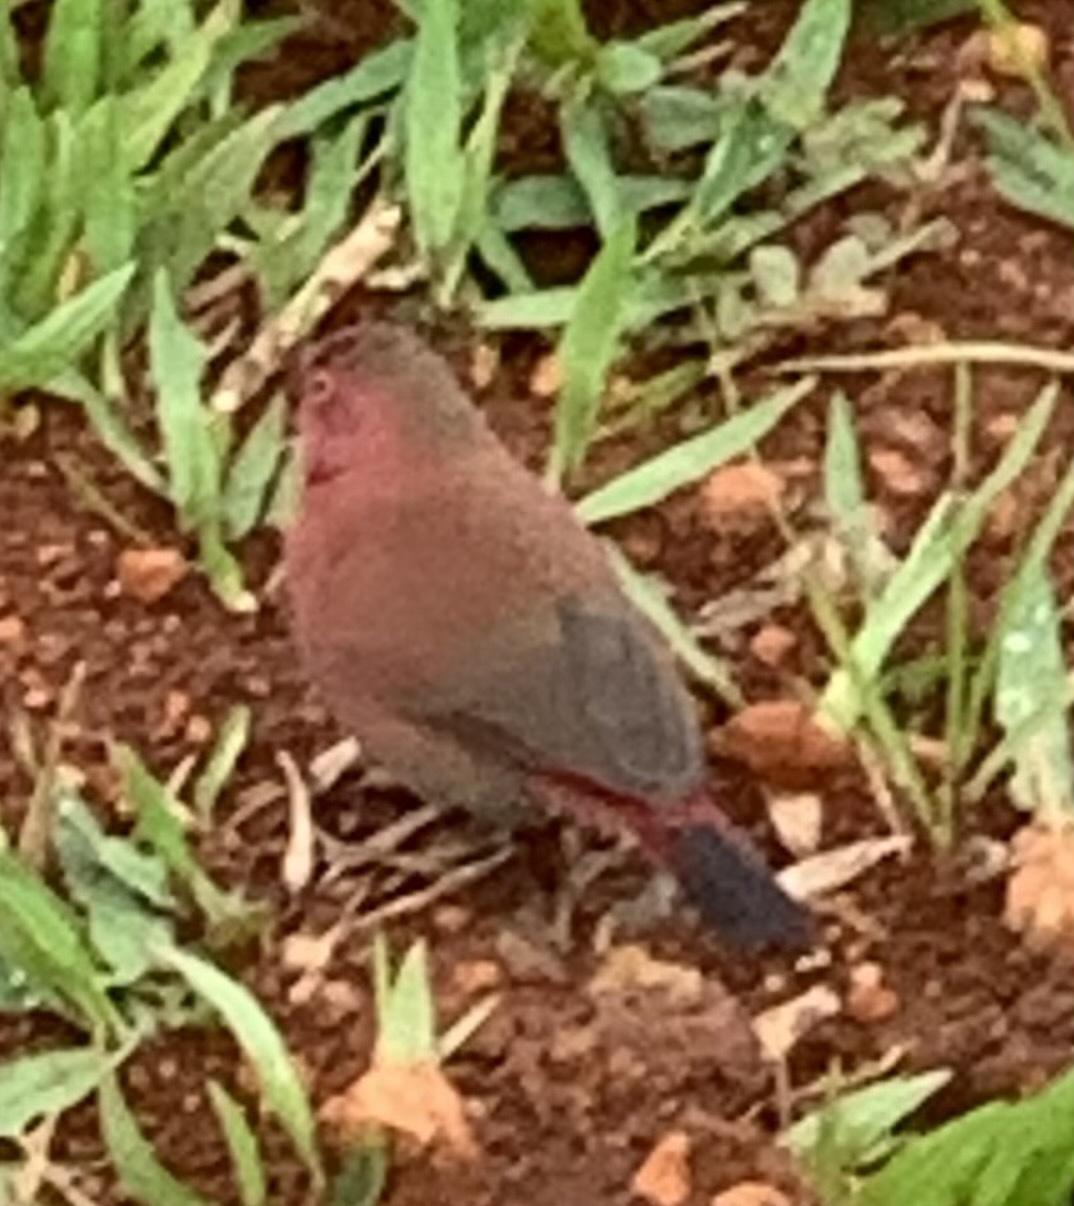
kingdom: Animalia
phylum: Chordata
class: Aves
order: Passeriformes
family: Estrildidae
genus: Lagonosticta
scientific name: Lagonosticta senegala
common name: Red-billed firefinch
